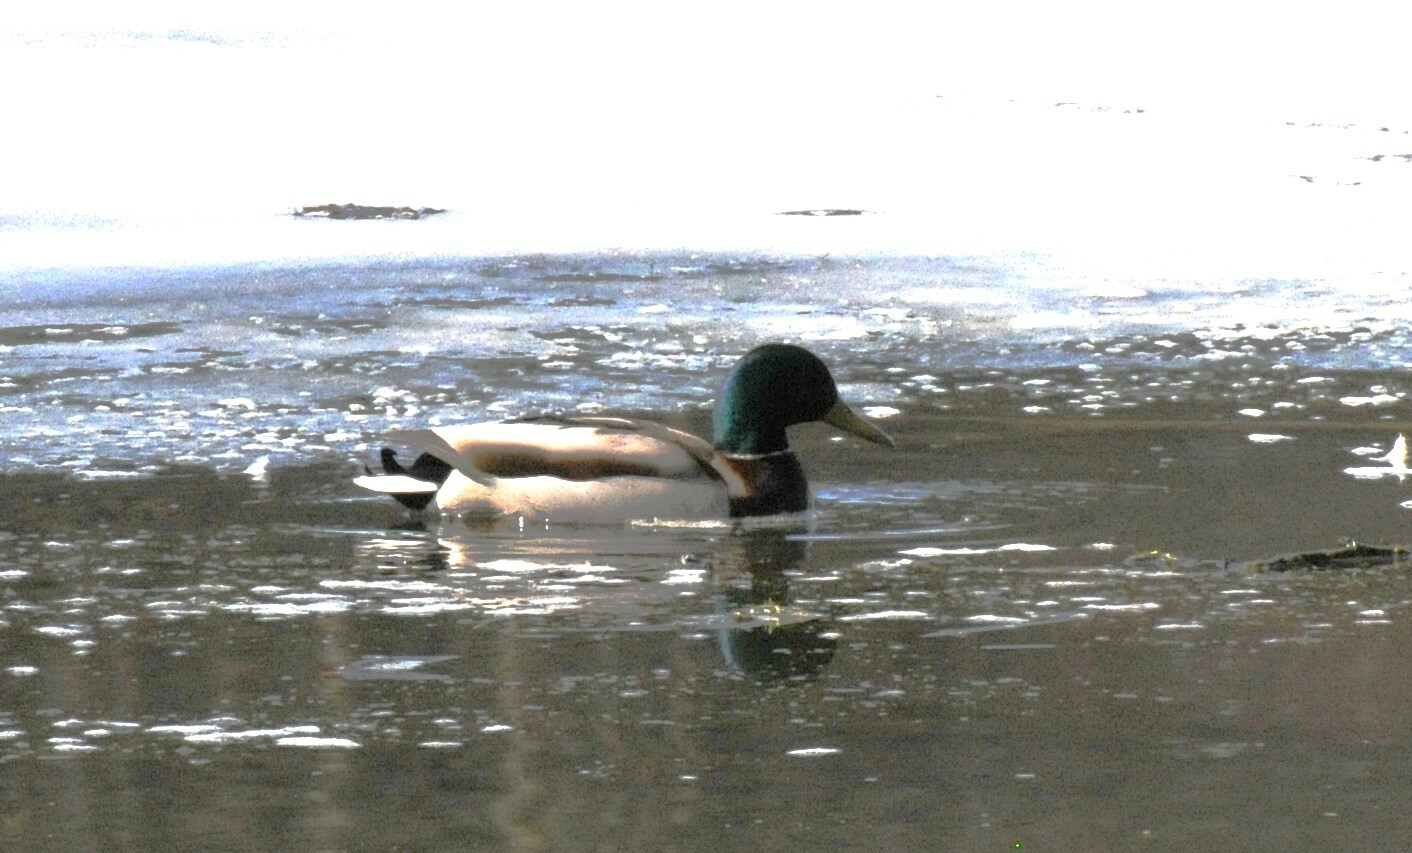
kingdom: Animalia
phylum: Chordata
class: Aves
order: Anseriformes
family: Anatidae
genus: Anas
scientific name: Anas platyrhynchos
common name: Mallard
